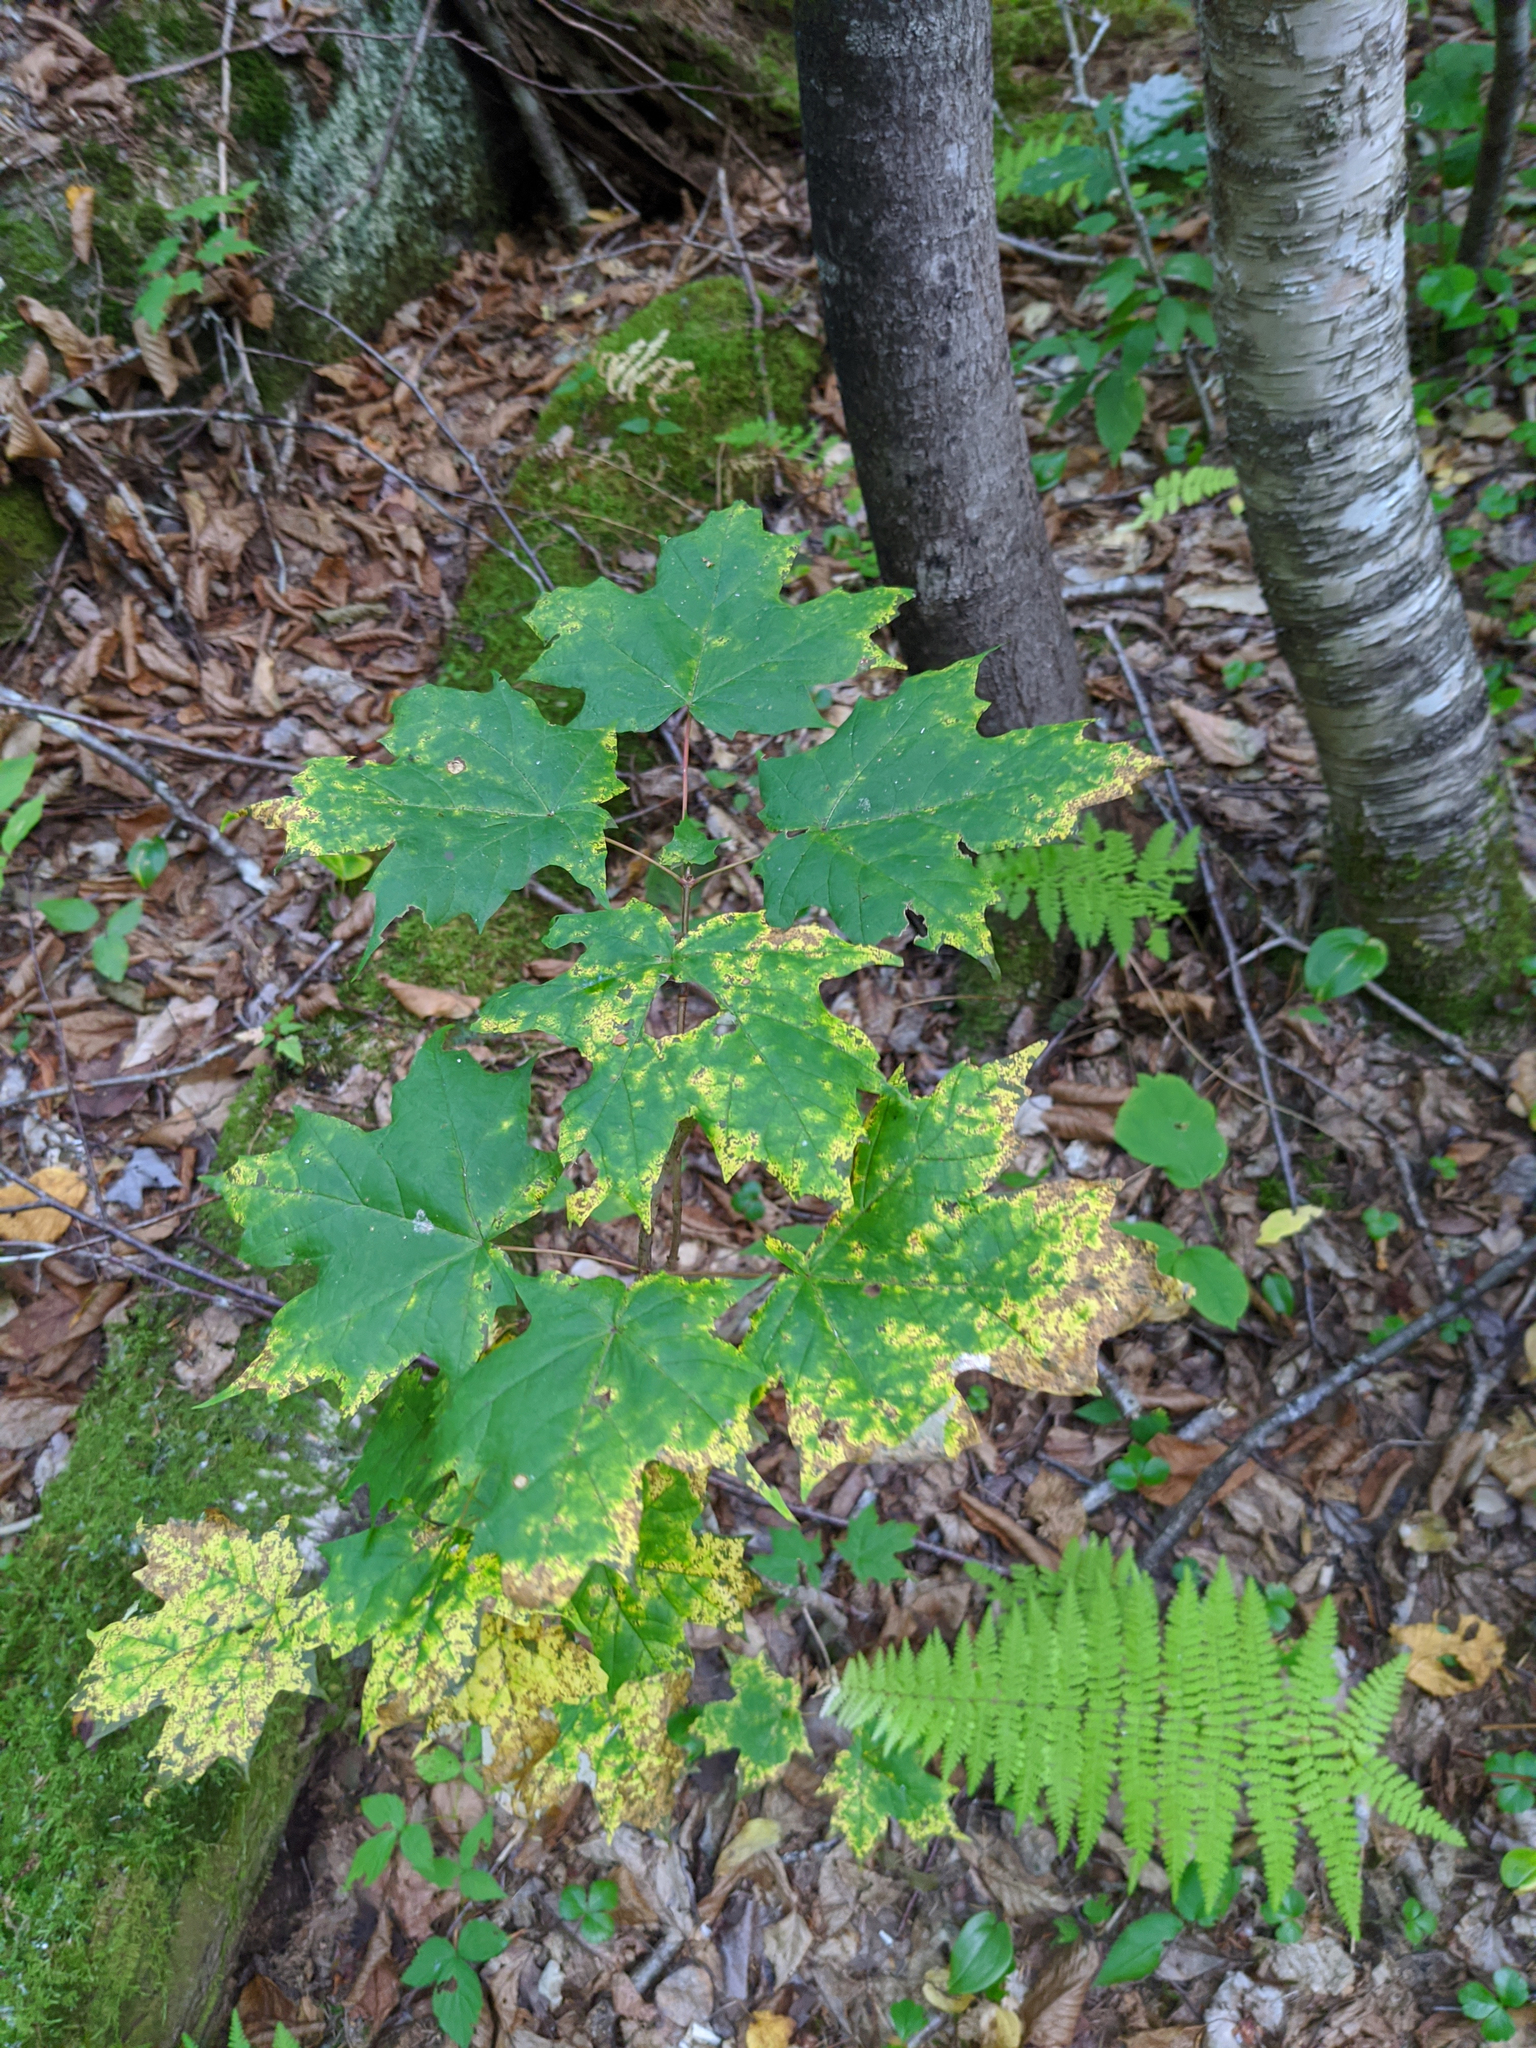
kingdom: Plantae
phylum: Tracheophyta
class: Magnoliopsida
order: Sapindales
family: Sapindaceae
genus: Acer
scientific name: Acer saccharum
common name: Sugar maple
